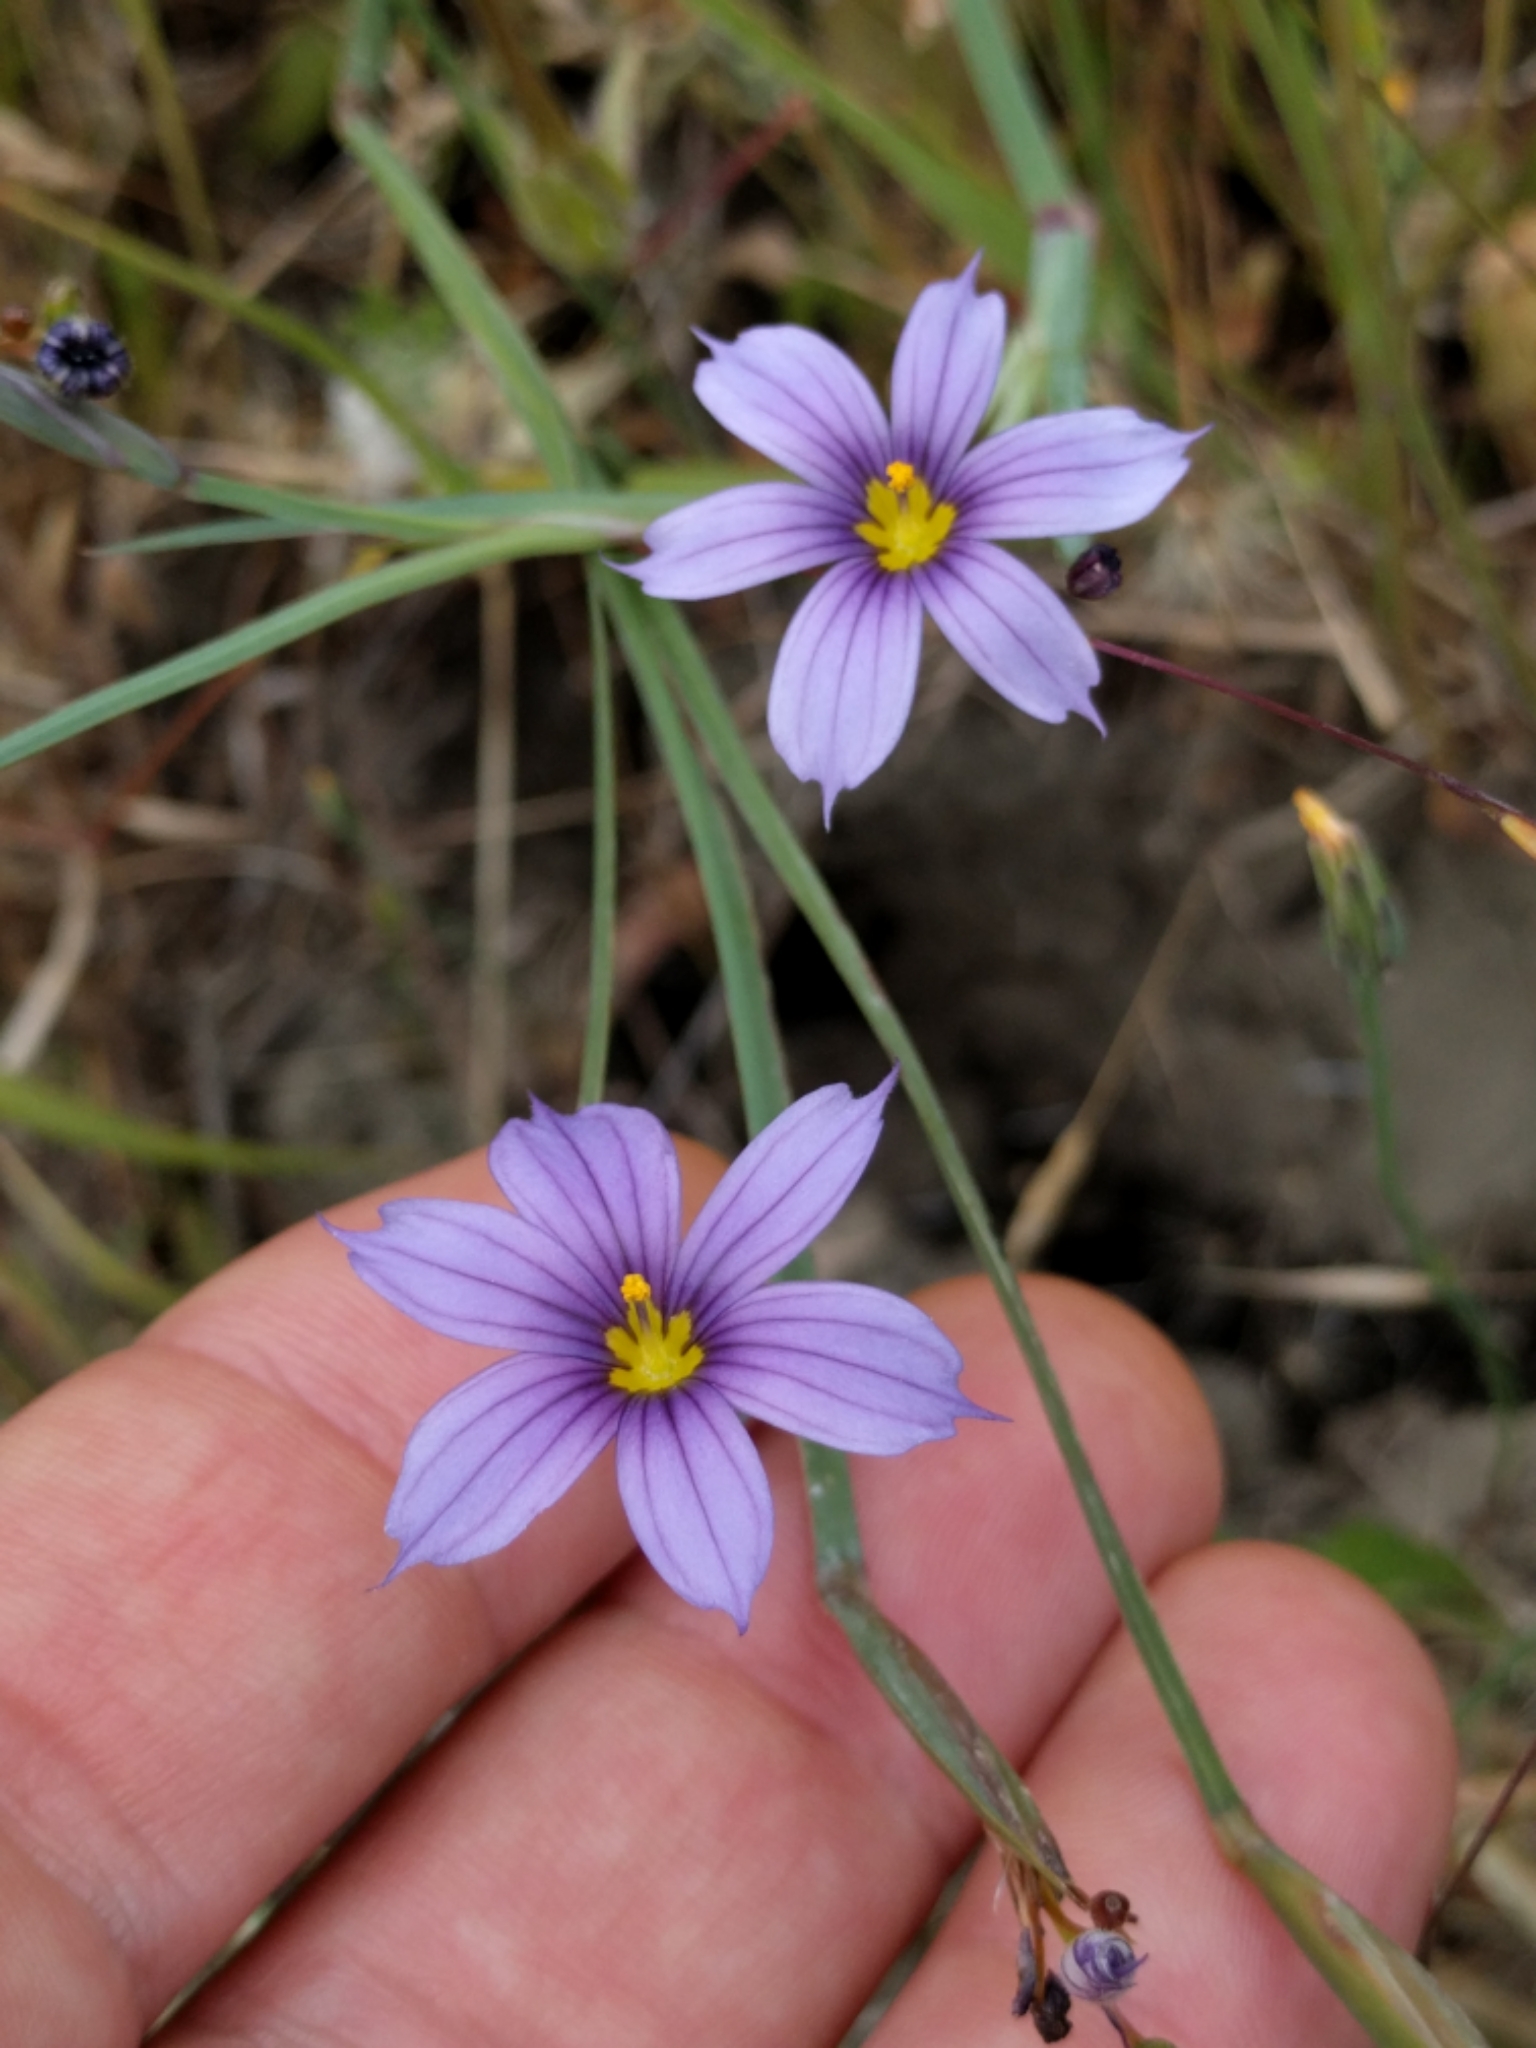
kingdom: Plantae
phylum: Tracheophyta
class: Liliopsida
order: Asparagales
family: Iridaceae
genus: Sisyrinchium
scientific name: Sisyrinchium bellum
